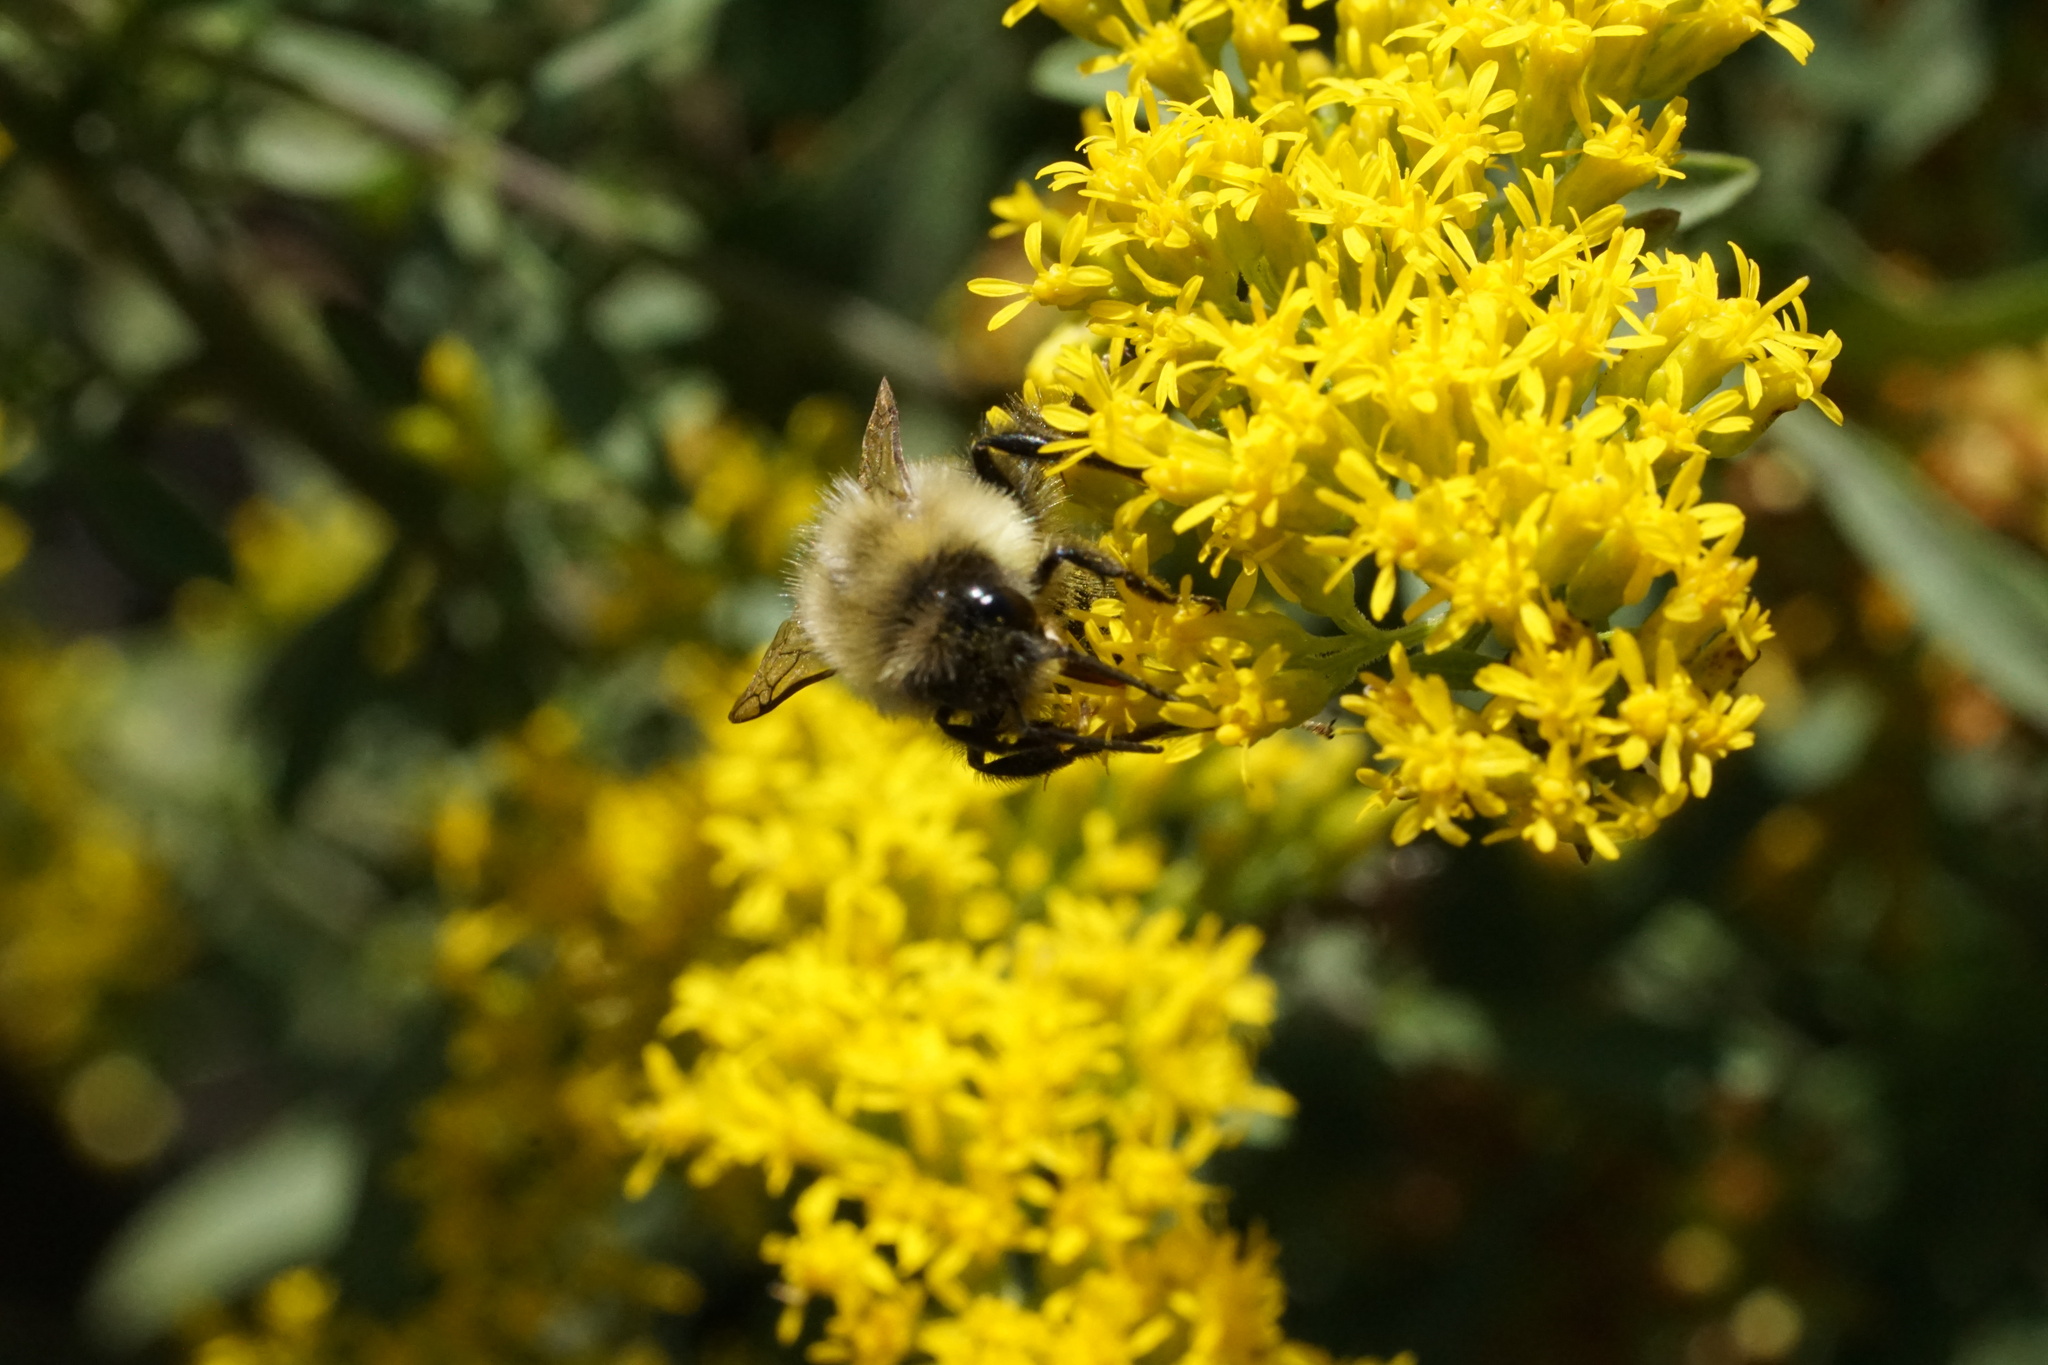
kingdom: Animalia
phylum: Arthropoda
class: Insecta
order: Hymenoptera
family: Apidae
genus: Bombus
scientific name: Bombus impatiens
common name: Common eastern bumble bee
